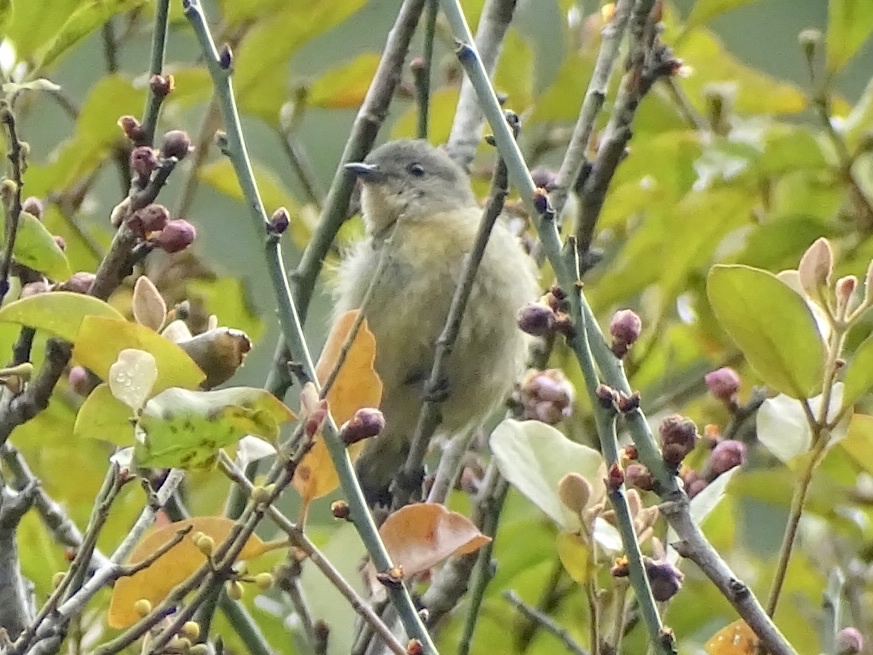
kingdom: Animalia
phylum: Chordata
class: Aves
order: Passeriformes
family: Dicaeidae
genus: Dicaeum
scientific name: Dicaeum ignipectus
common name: Fire-breasted flowerpecker
